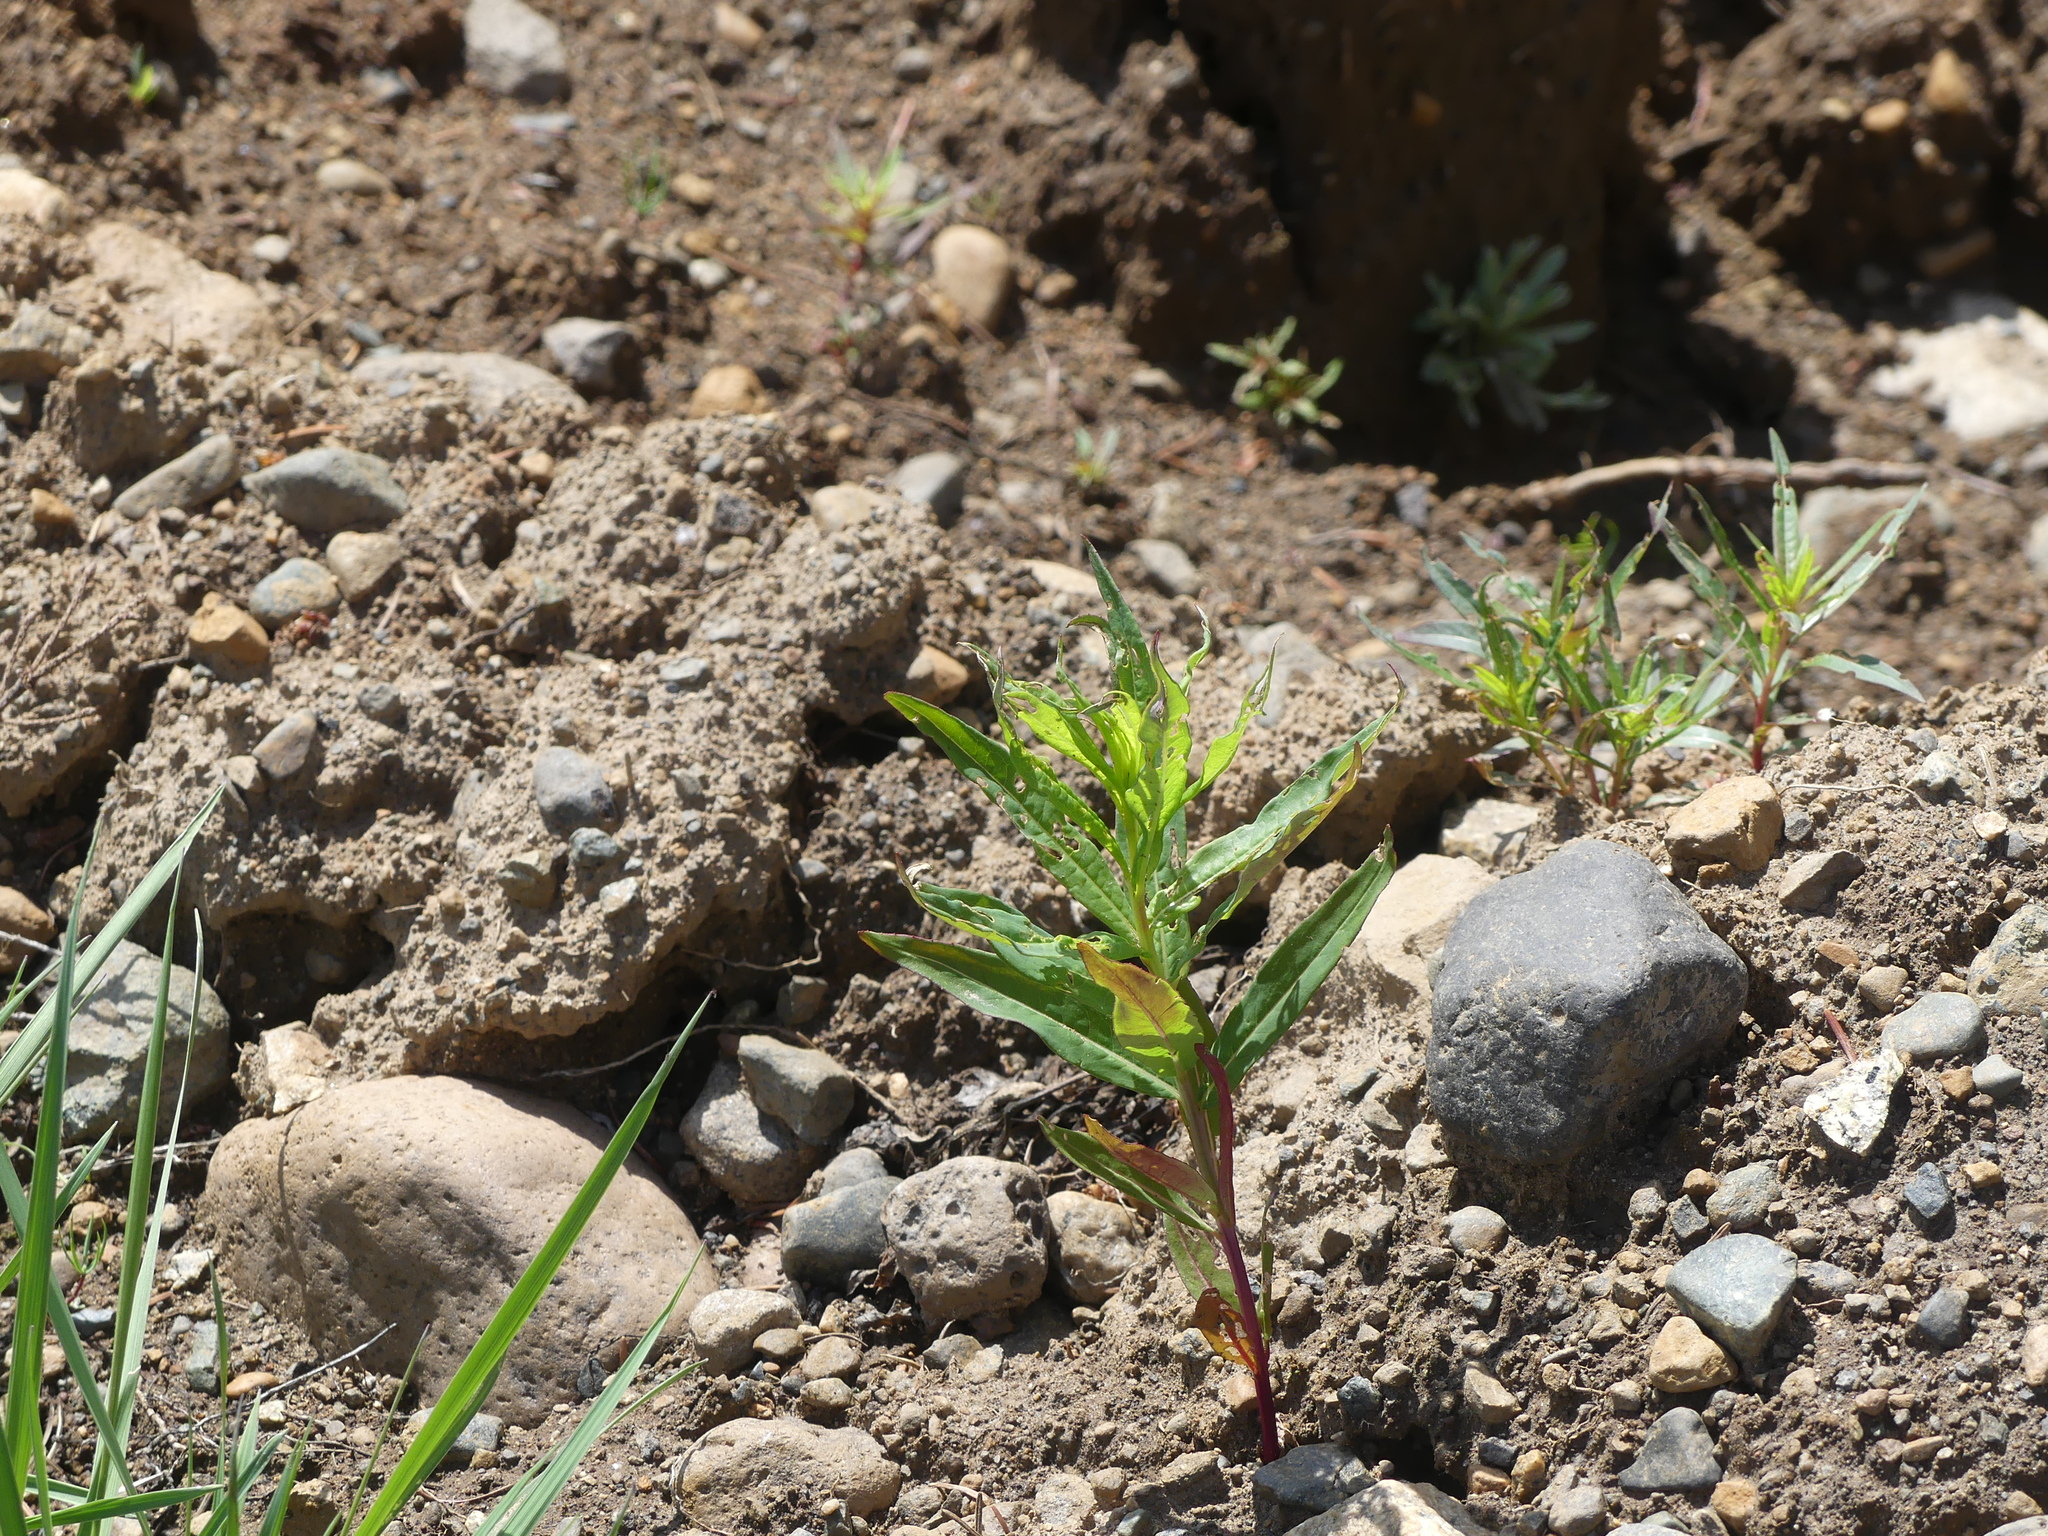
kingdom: Plantae
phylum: Tracheophyta
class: Magnoliopsida
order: Myrtales
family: Onagraceae
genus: Chamaenerion
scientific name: Chamaenerion angustifolium
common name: Fireweed
